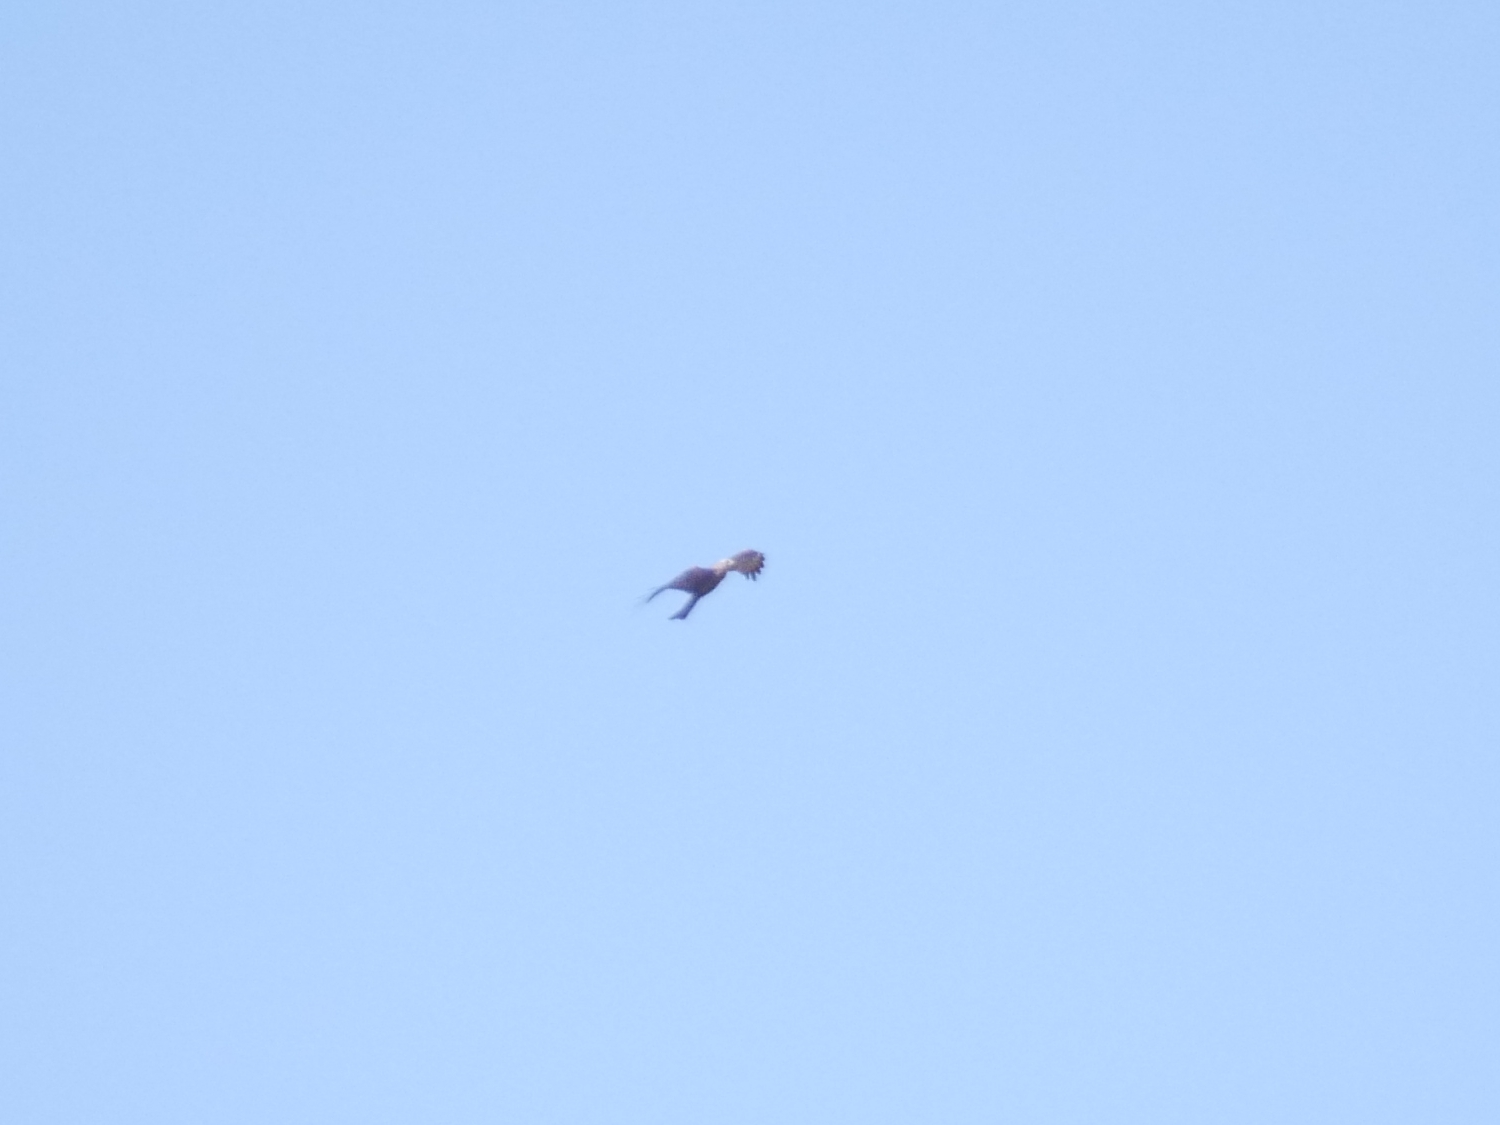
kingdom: Animalia
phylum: Chordata
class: Aves
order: Accipitriformes
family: Accipitridae
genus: Milvus
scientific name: Milvus migrans
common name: Black kite
